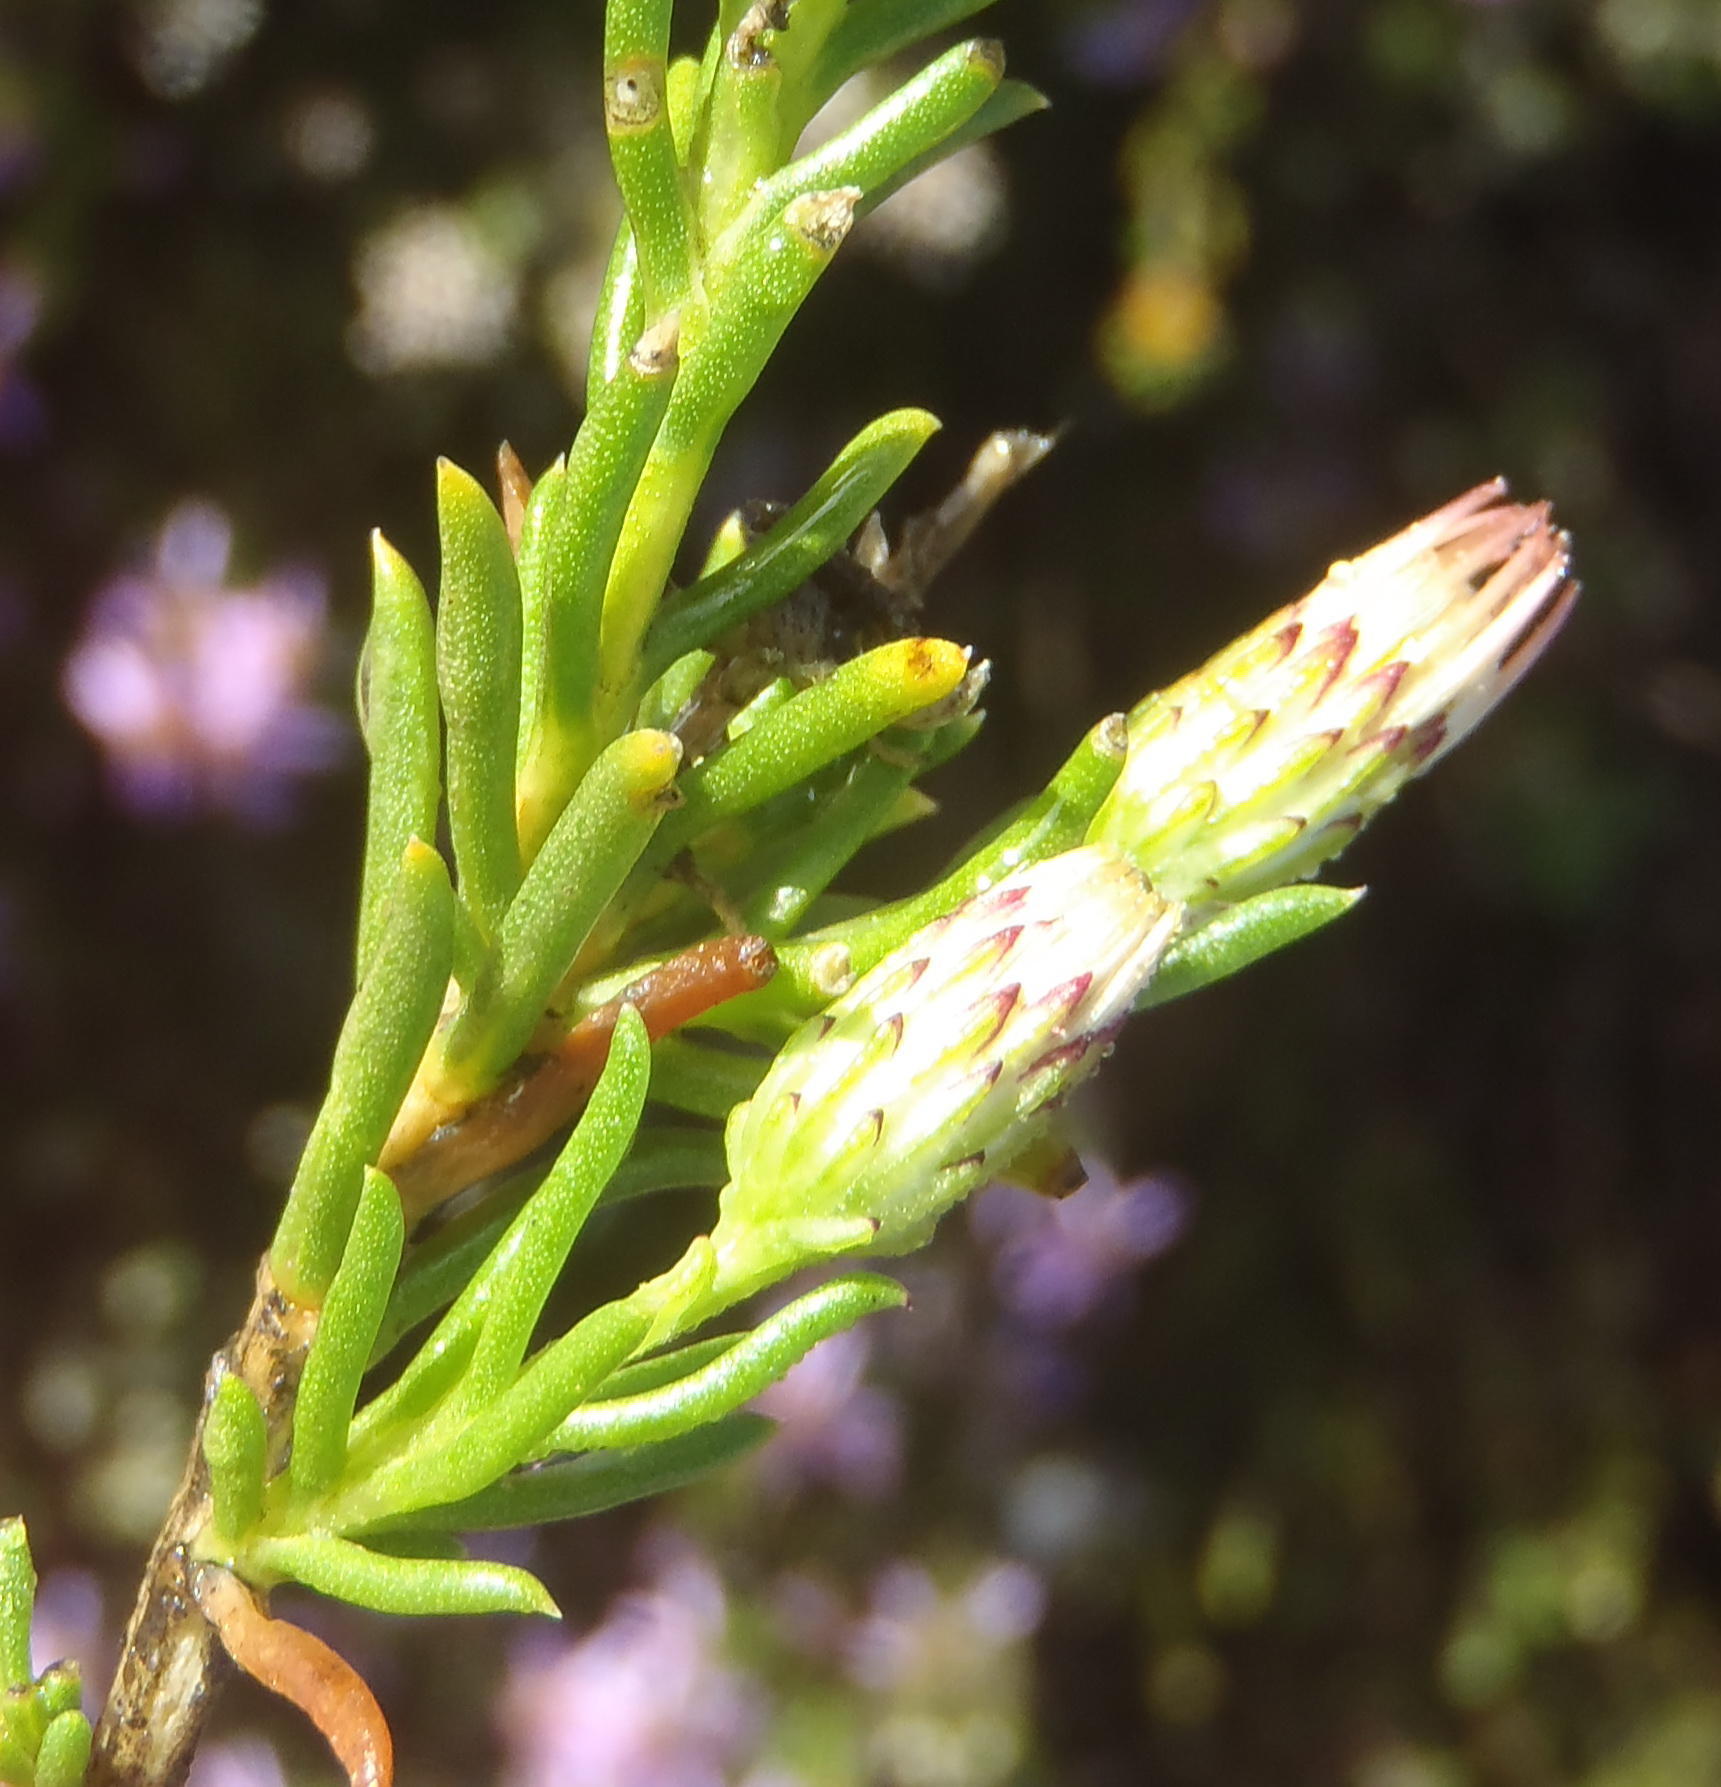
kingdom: Plantae
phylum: Tracheophyta
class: Magnoliopsida
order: Asterales
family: Asteraceae
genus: Felicia
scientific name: Felicia filifolia
